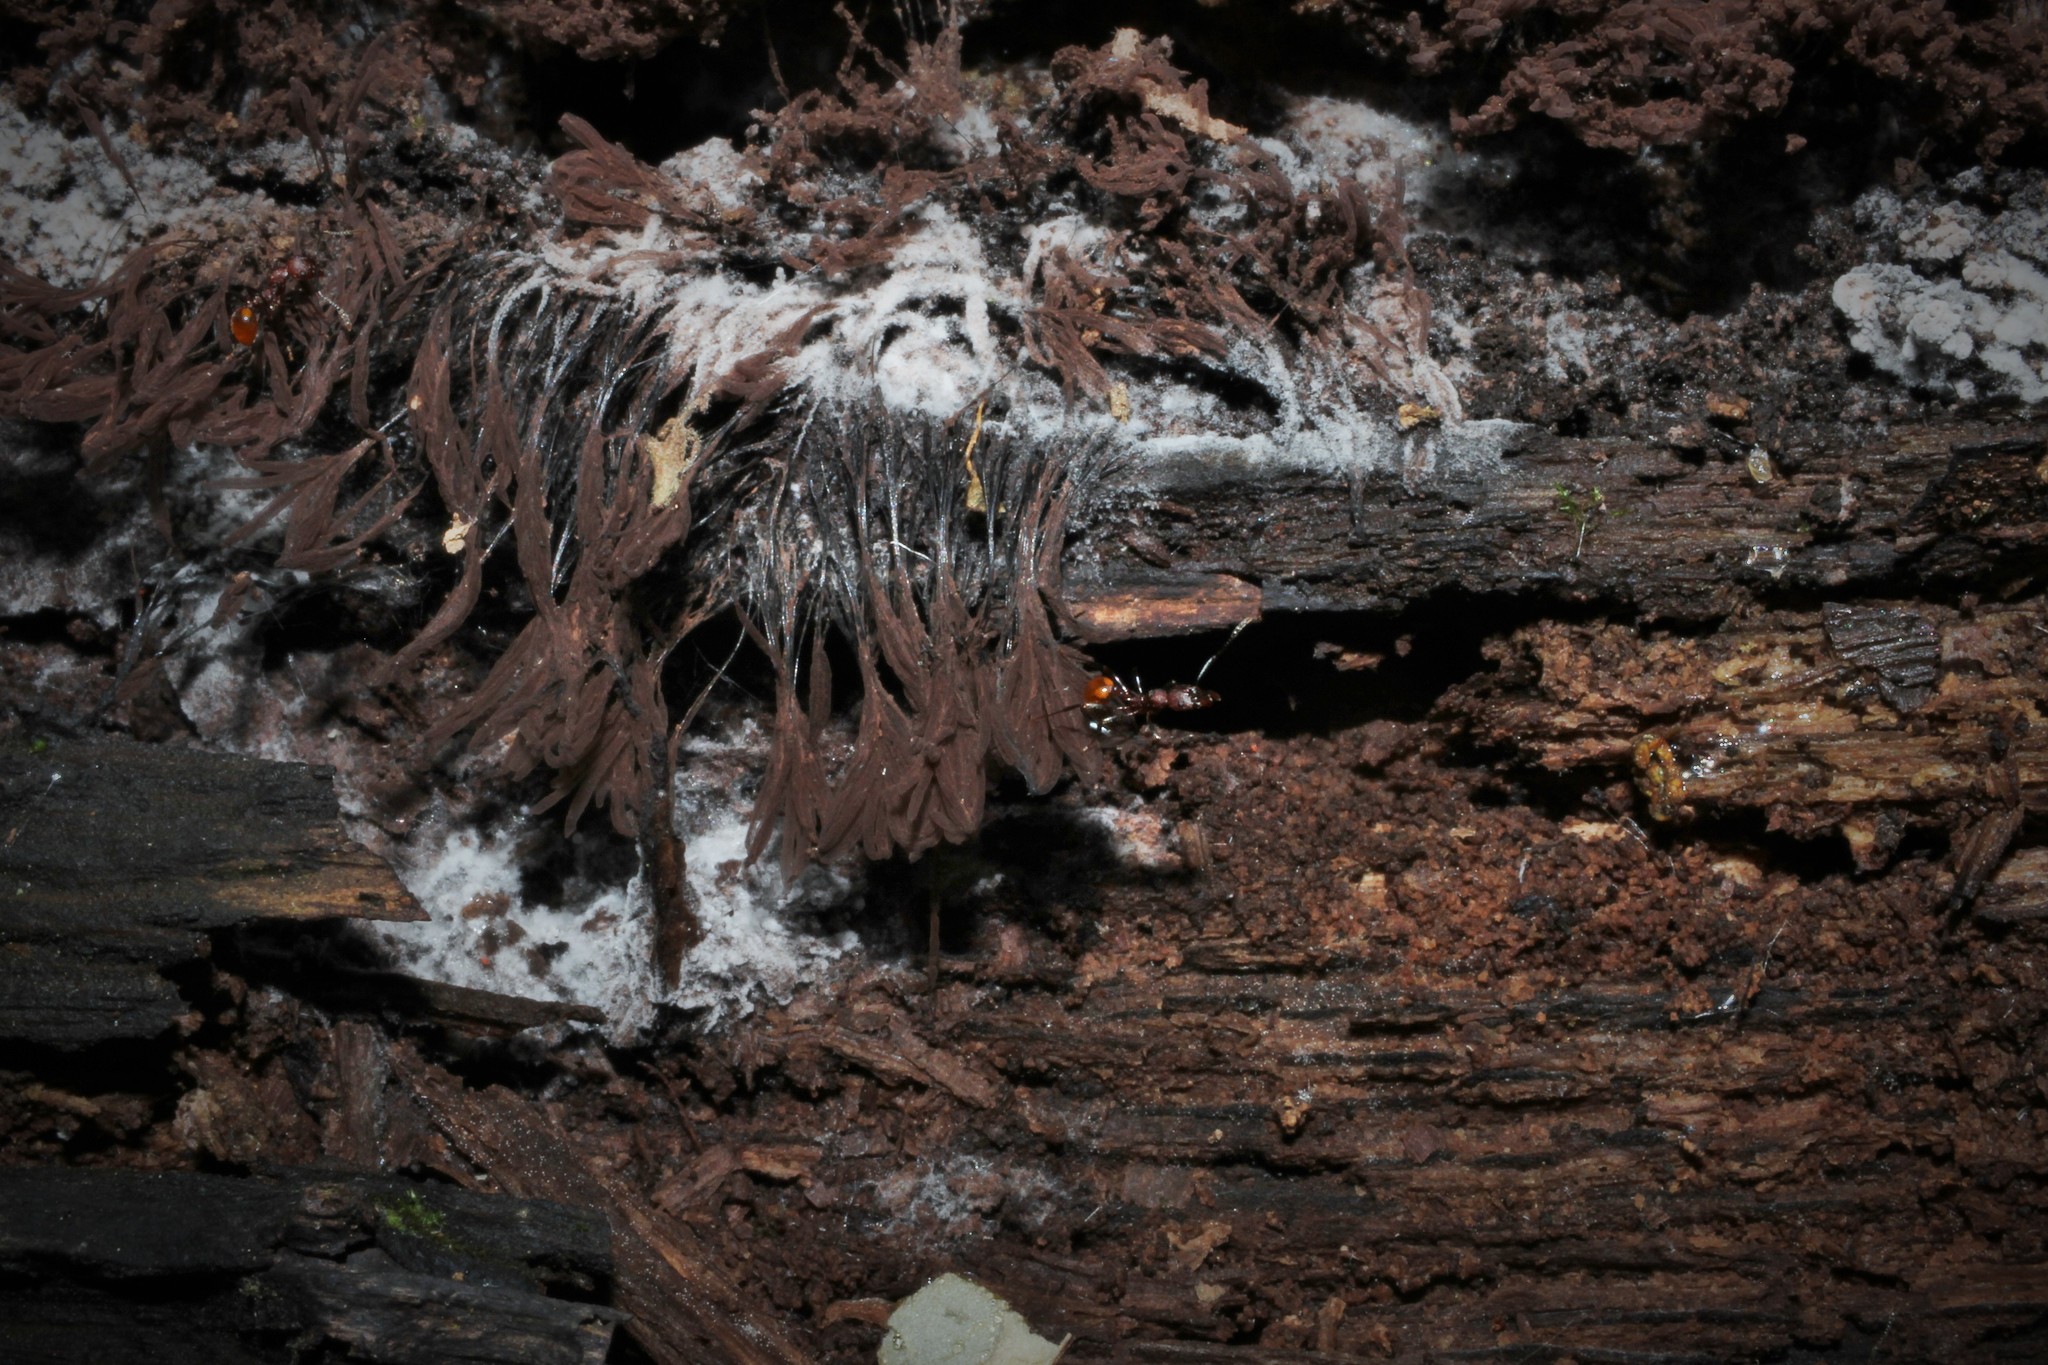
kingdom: Animalia
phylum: Arthropoda
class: Insecta
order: Hymenoptera
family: Formicidae
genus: Aphaenogaster
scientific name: Aphaenogaster tennesseensis
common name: Tennessee thread-waisted ant
